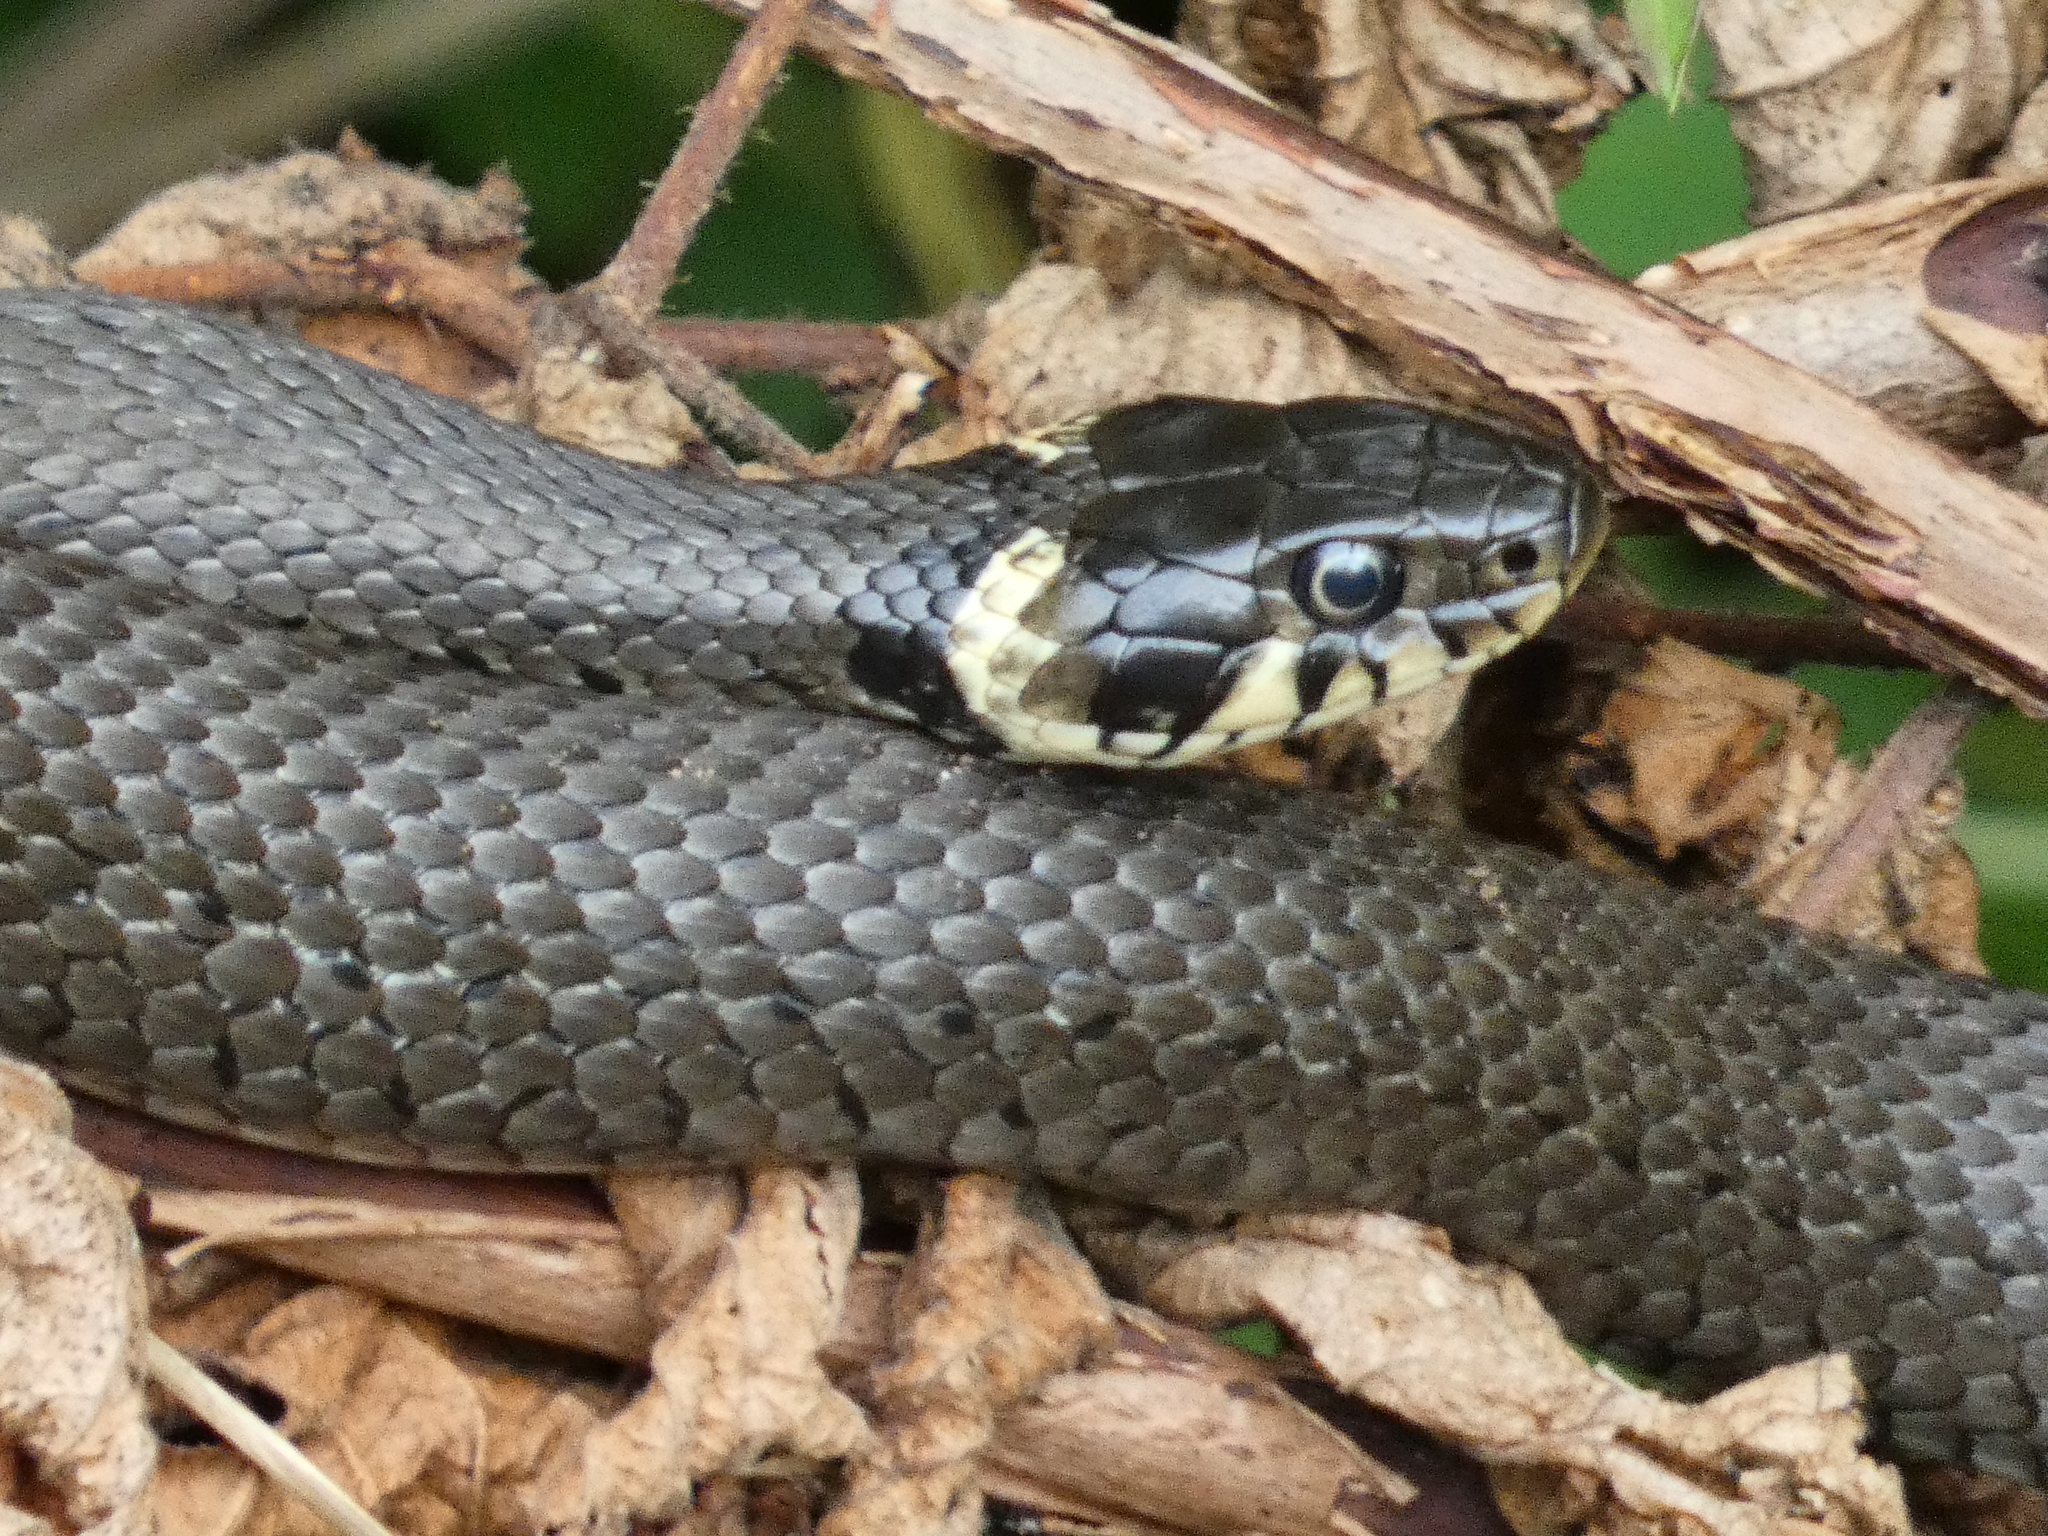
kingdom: Animalia
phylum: Chordata
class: Squamata
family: Colubridae
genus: Natrix
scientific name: Natrix natrix
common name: Grass snake
